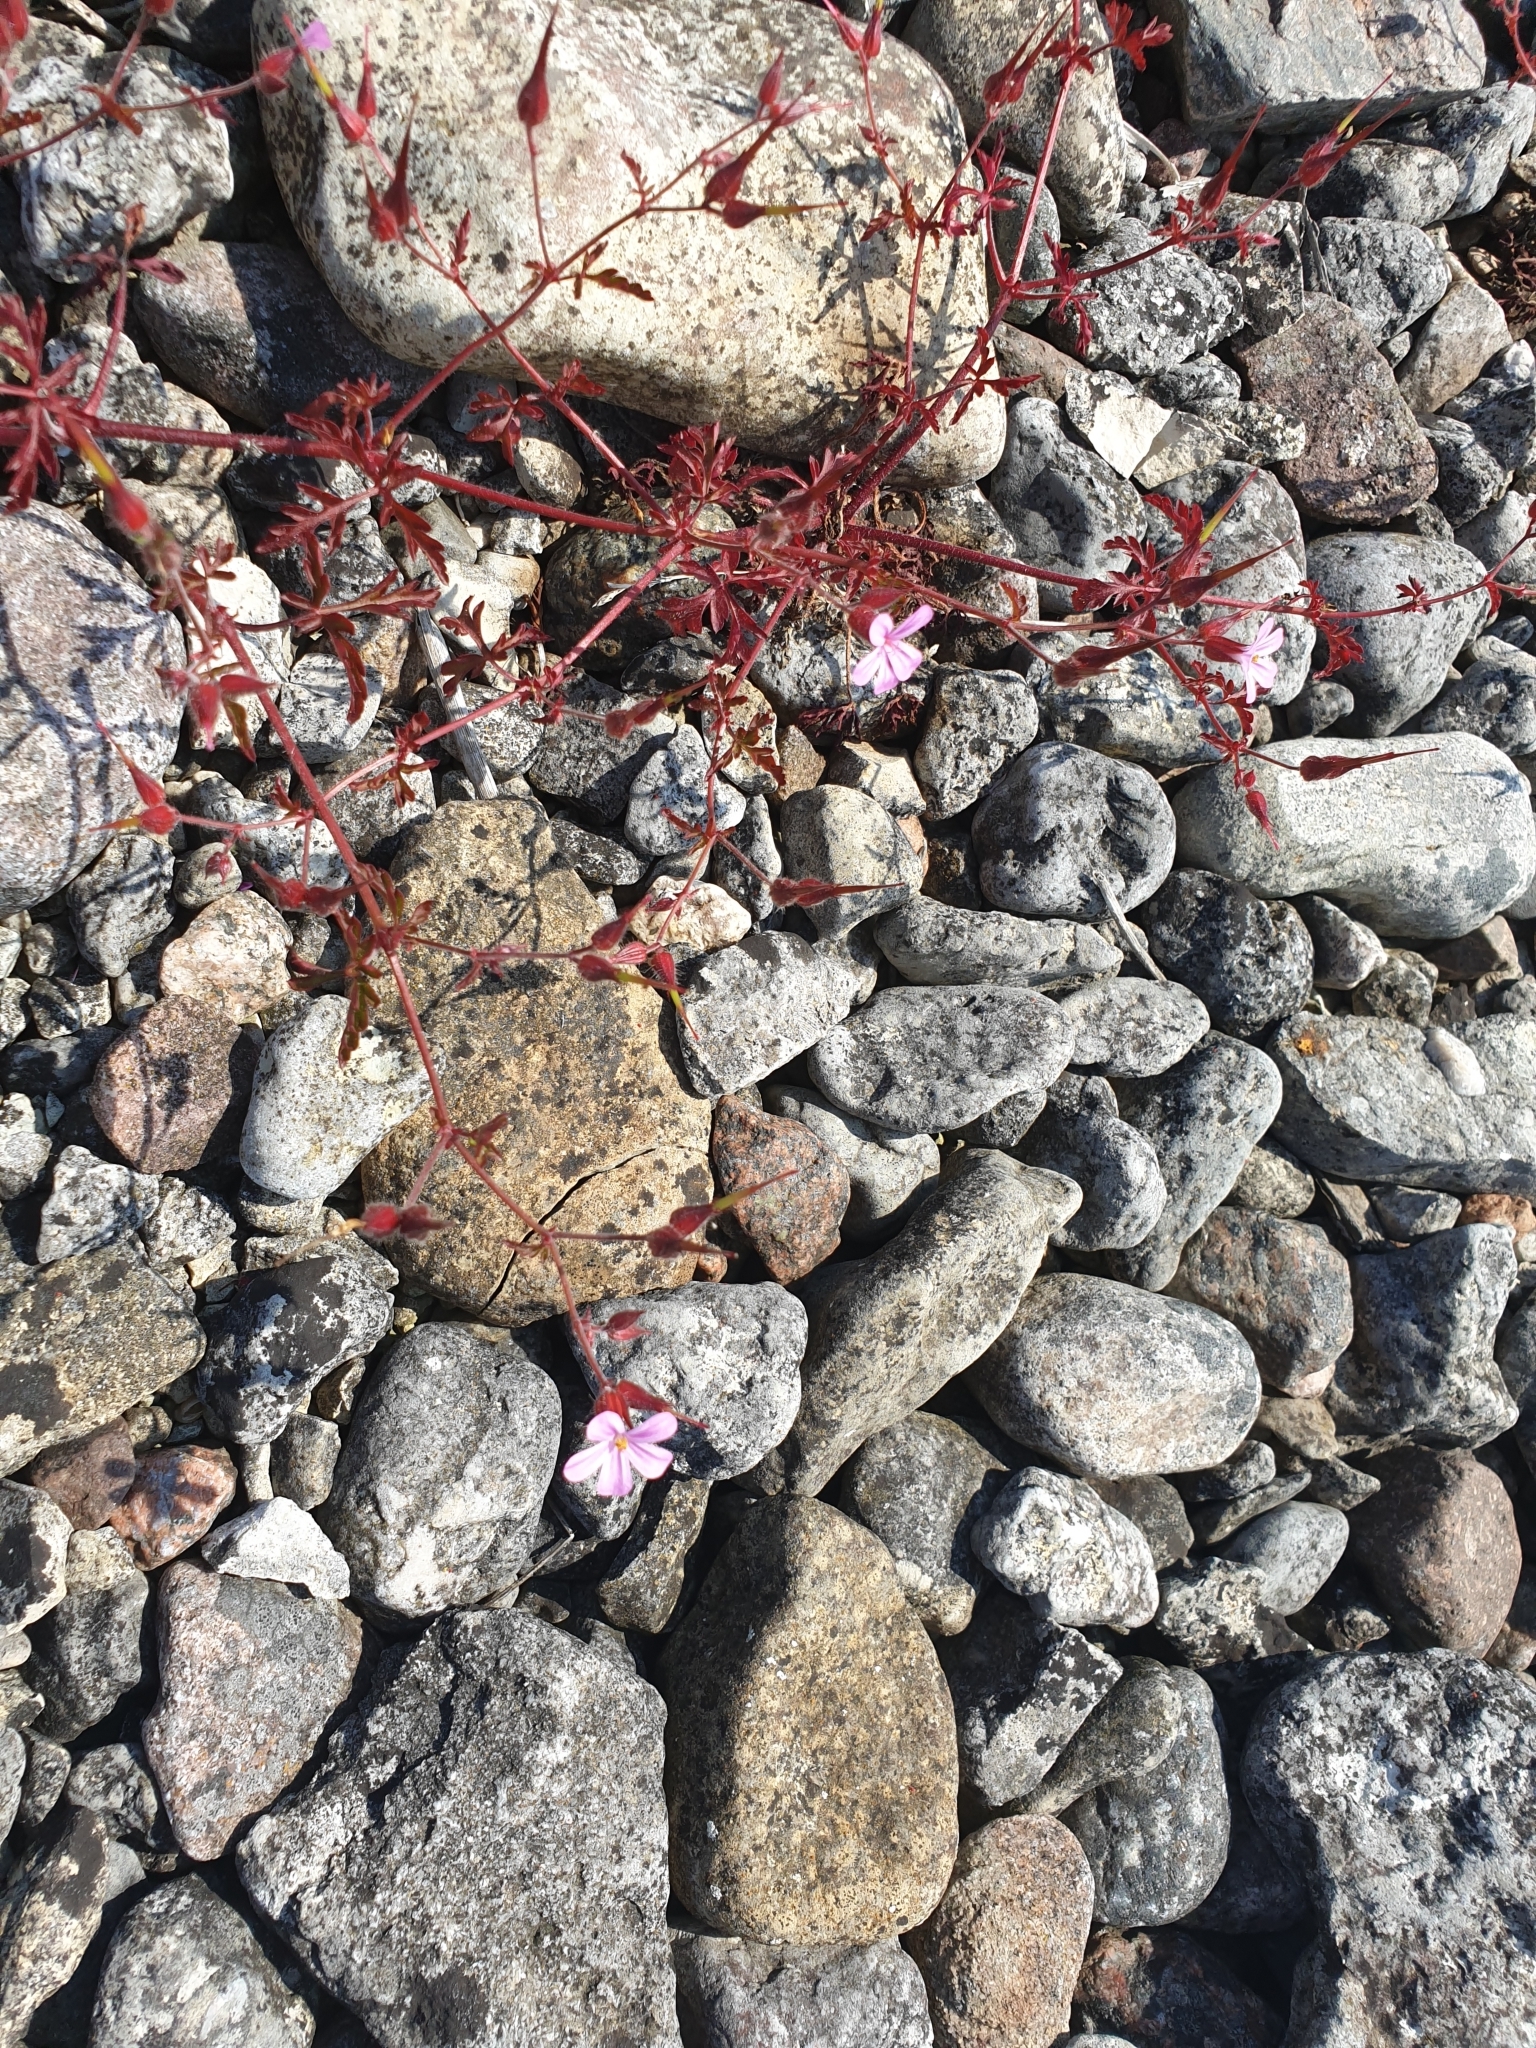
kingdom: Plantae
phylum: Tracheophyta
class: Magnoliopsida
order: Geraniales
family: Geraniaceae
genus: Geranium
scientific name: Geranium robertianum
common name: Herb-robert
